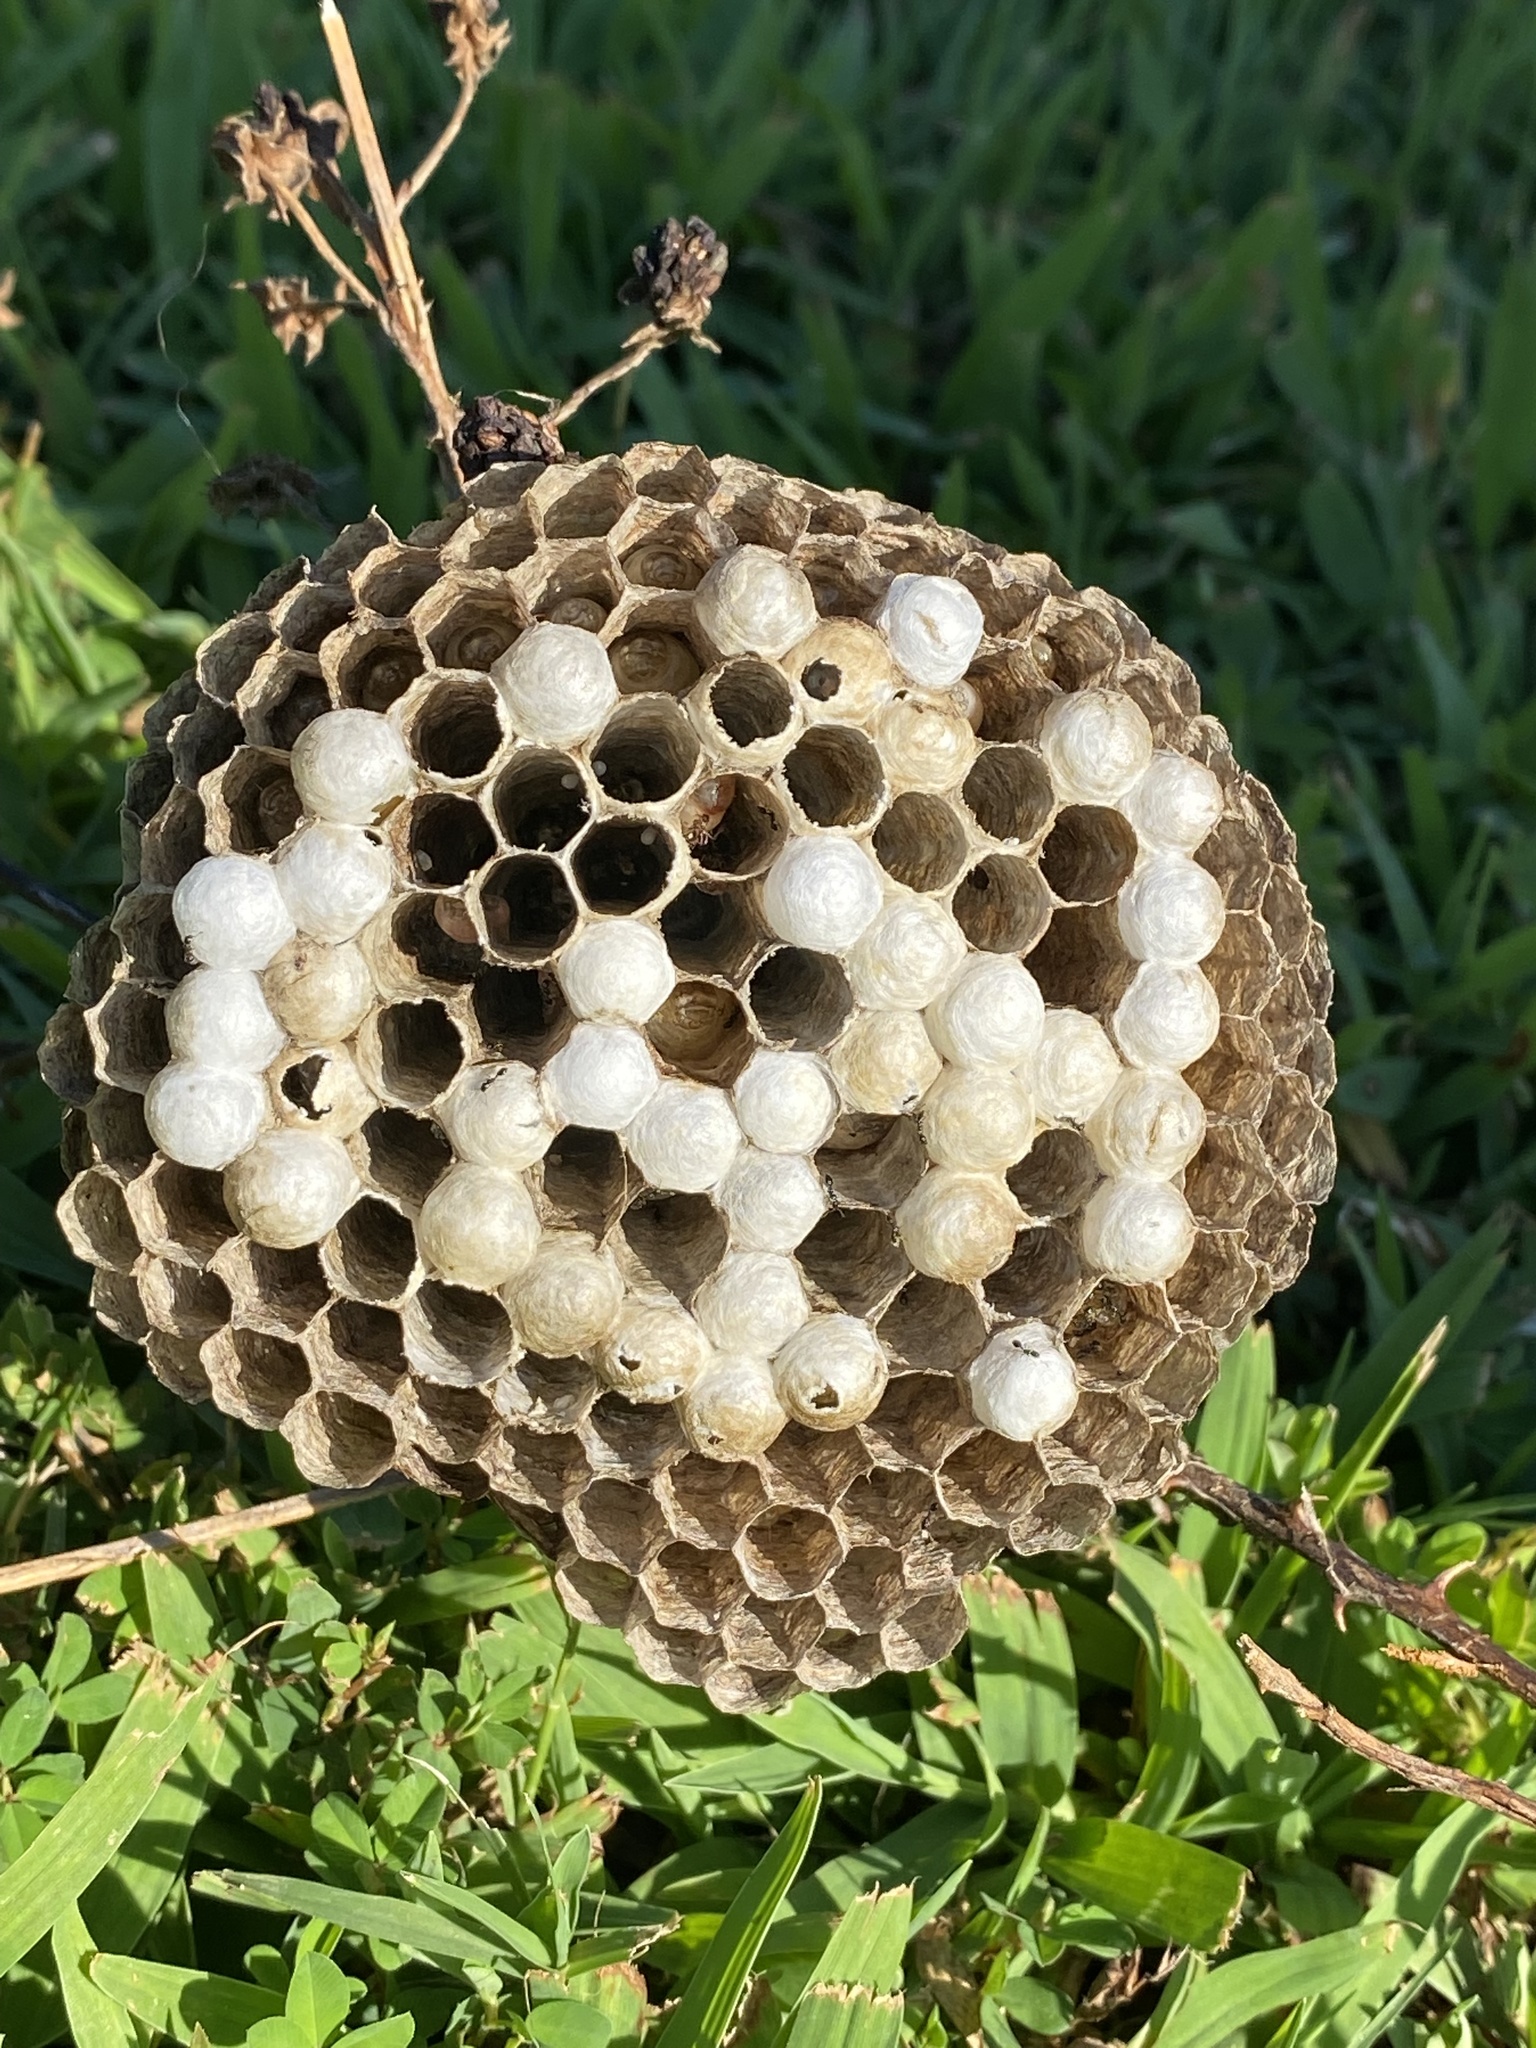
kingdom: Animalia
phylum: Arthropoda
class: Insecta
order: Hymenoptera
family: Eumenidae
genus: Polistes
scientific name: Polistes
